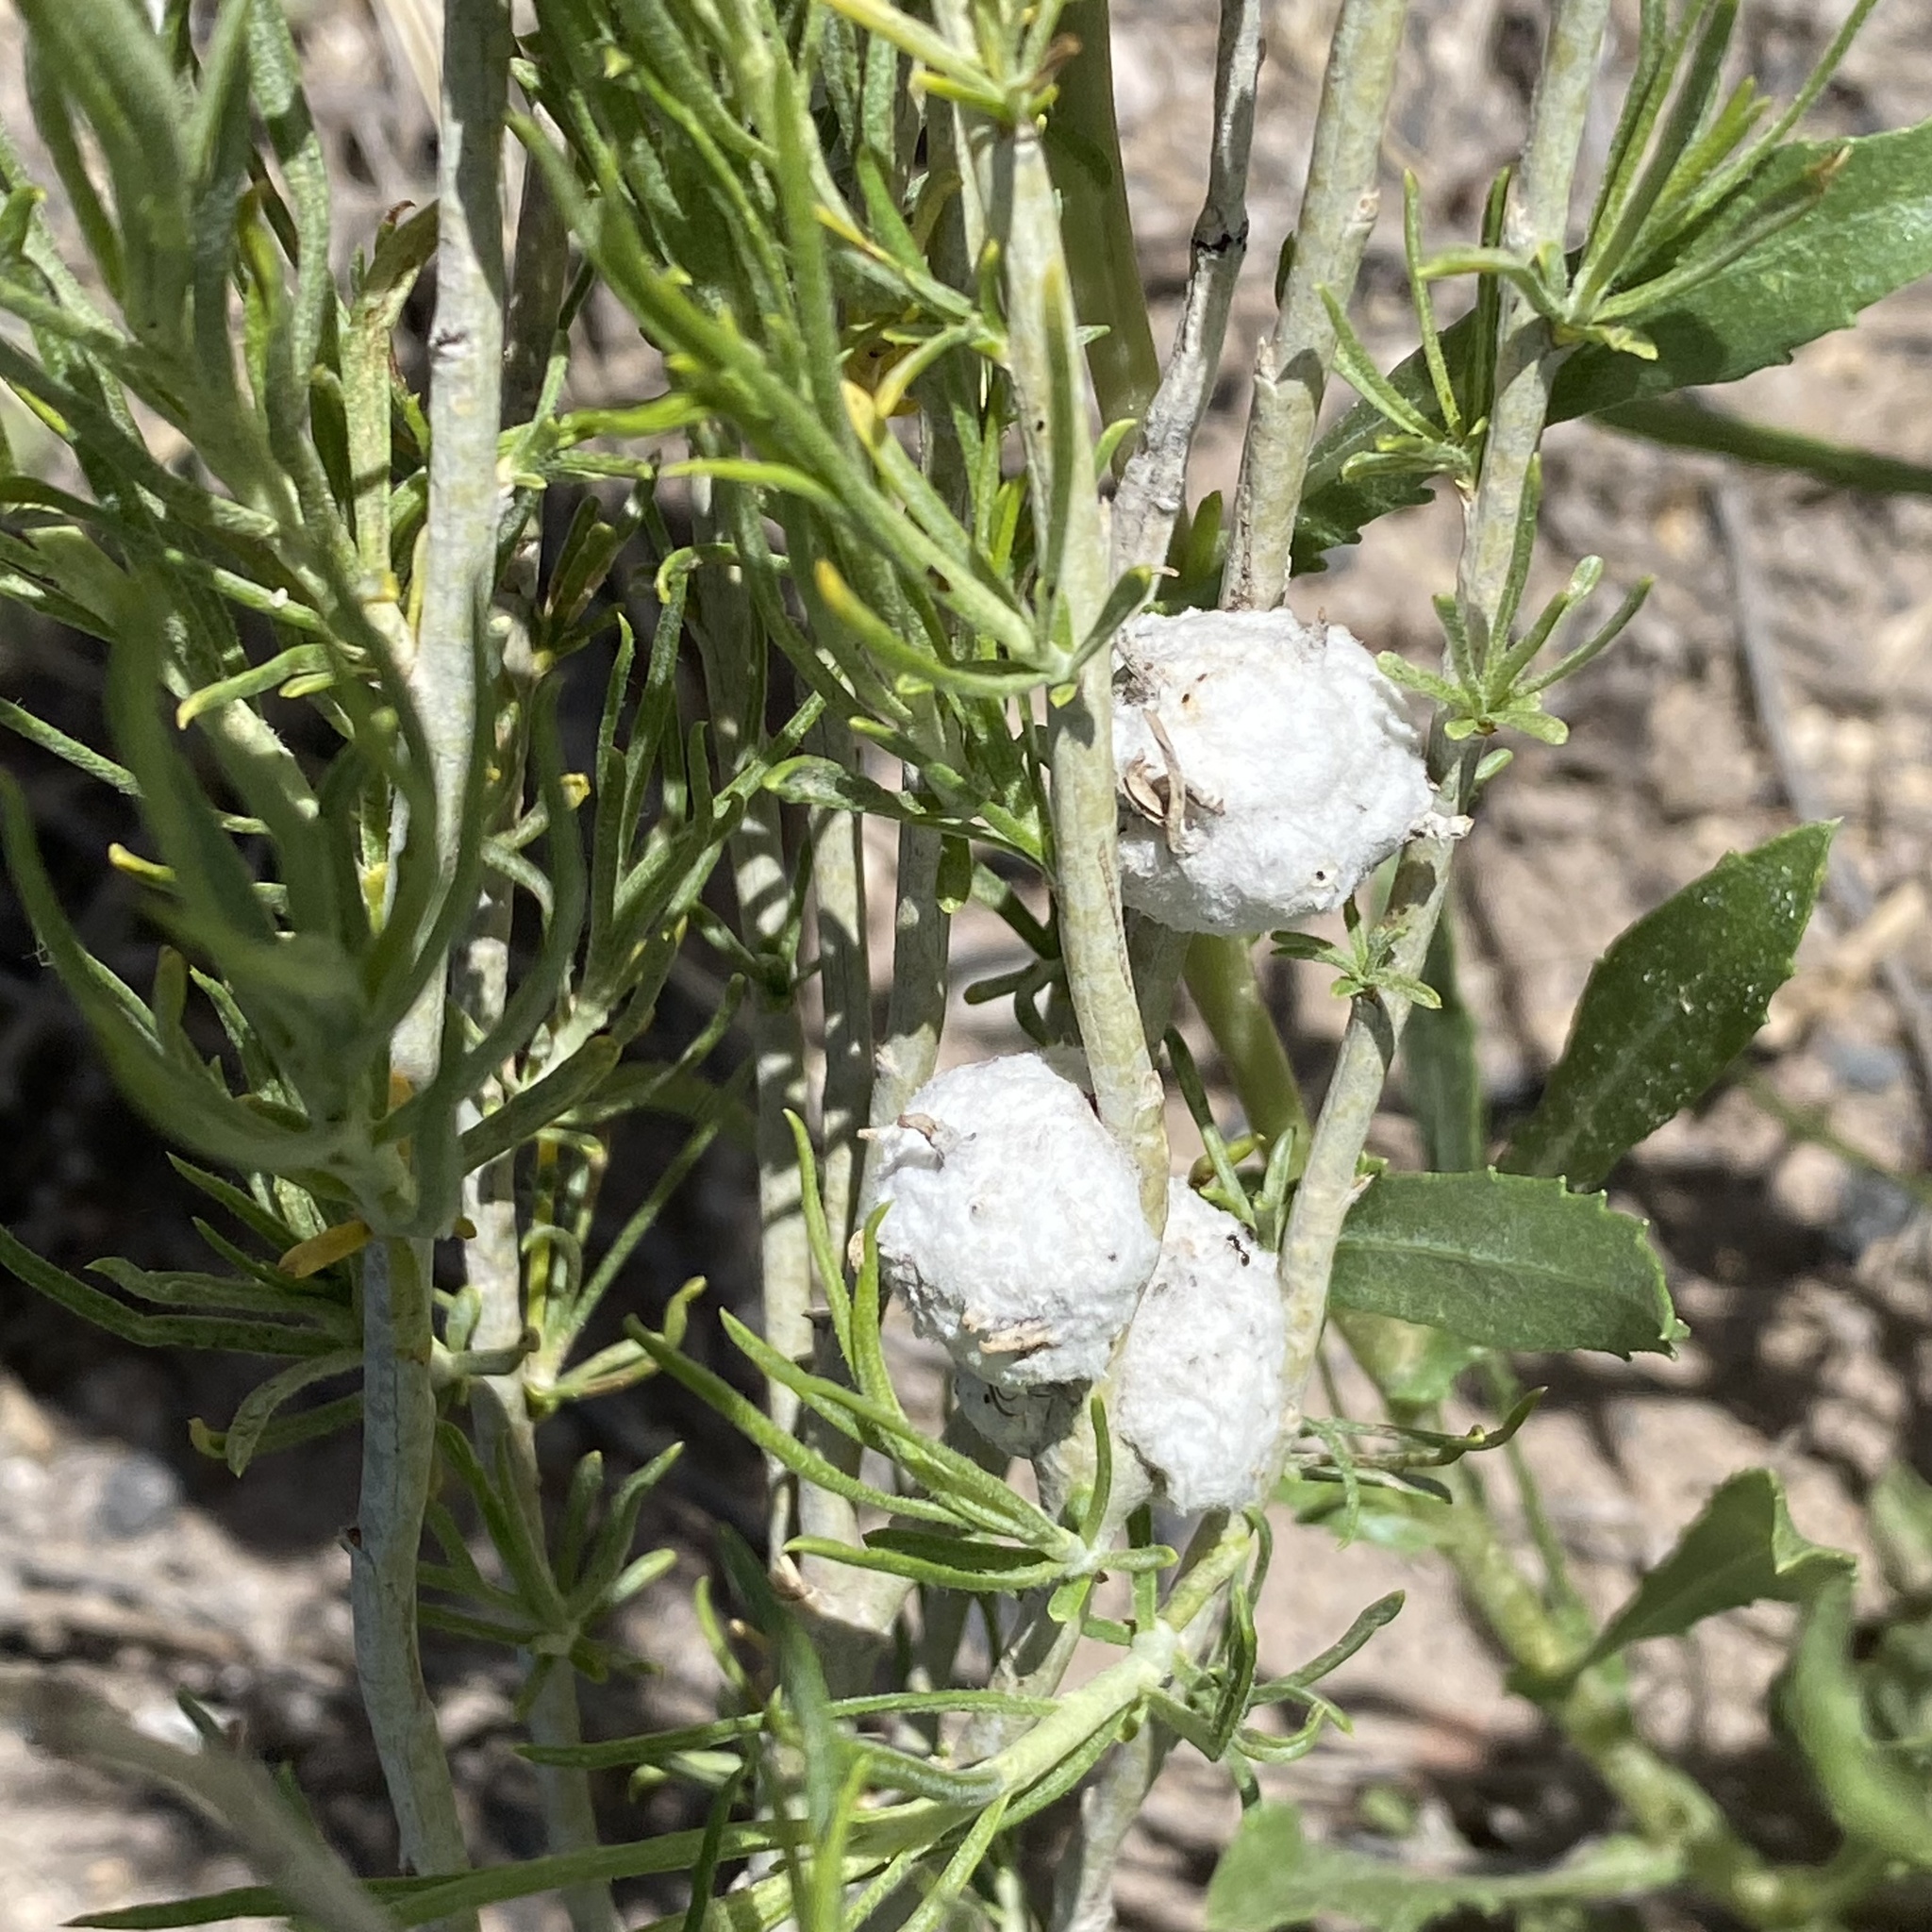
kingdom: Animalia
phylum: Arthropoda
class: Insecta
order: Diptera
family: Tephritidae
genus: Aciurina
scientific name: Aciurina bigeloviae
